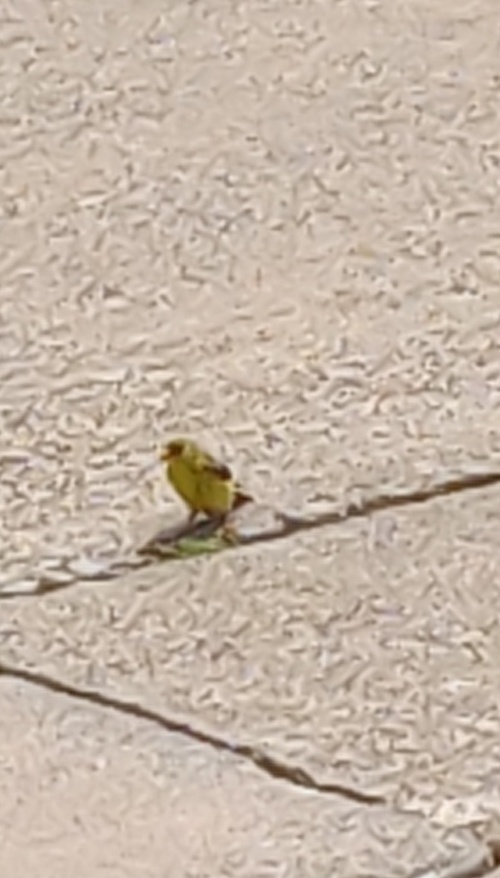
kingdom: Animalia
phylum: Chordata
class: Aves
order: Passeriformes
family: Fringillidae
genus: Spinus
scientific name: Spinus tristis
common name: American goldfinch
